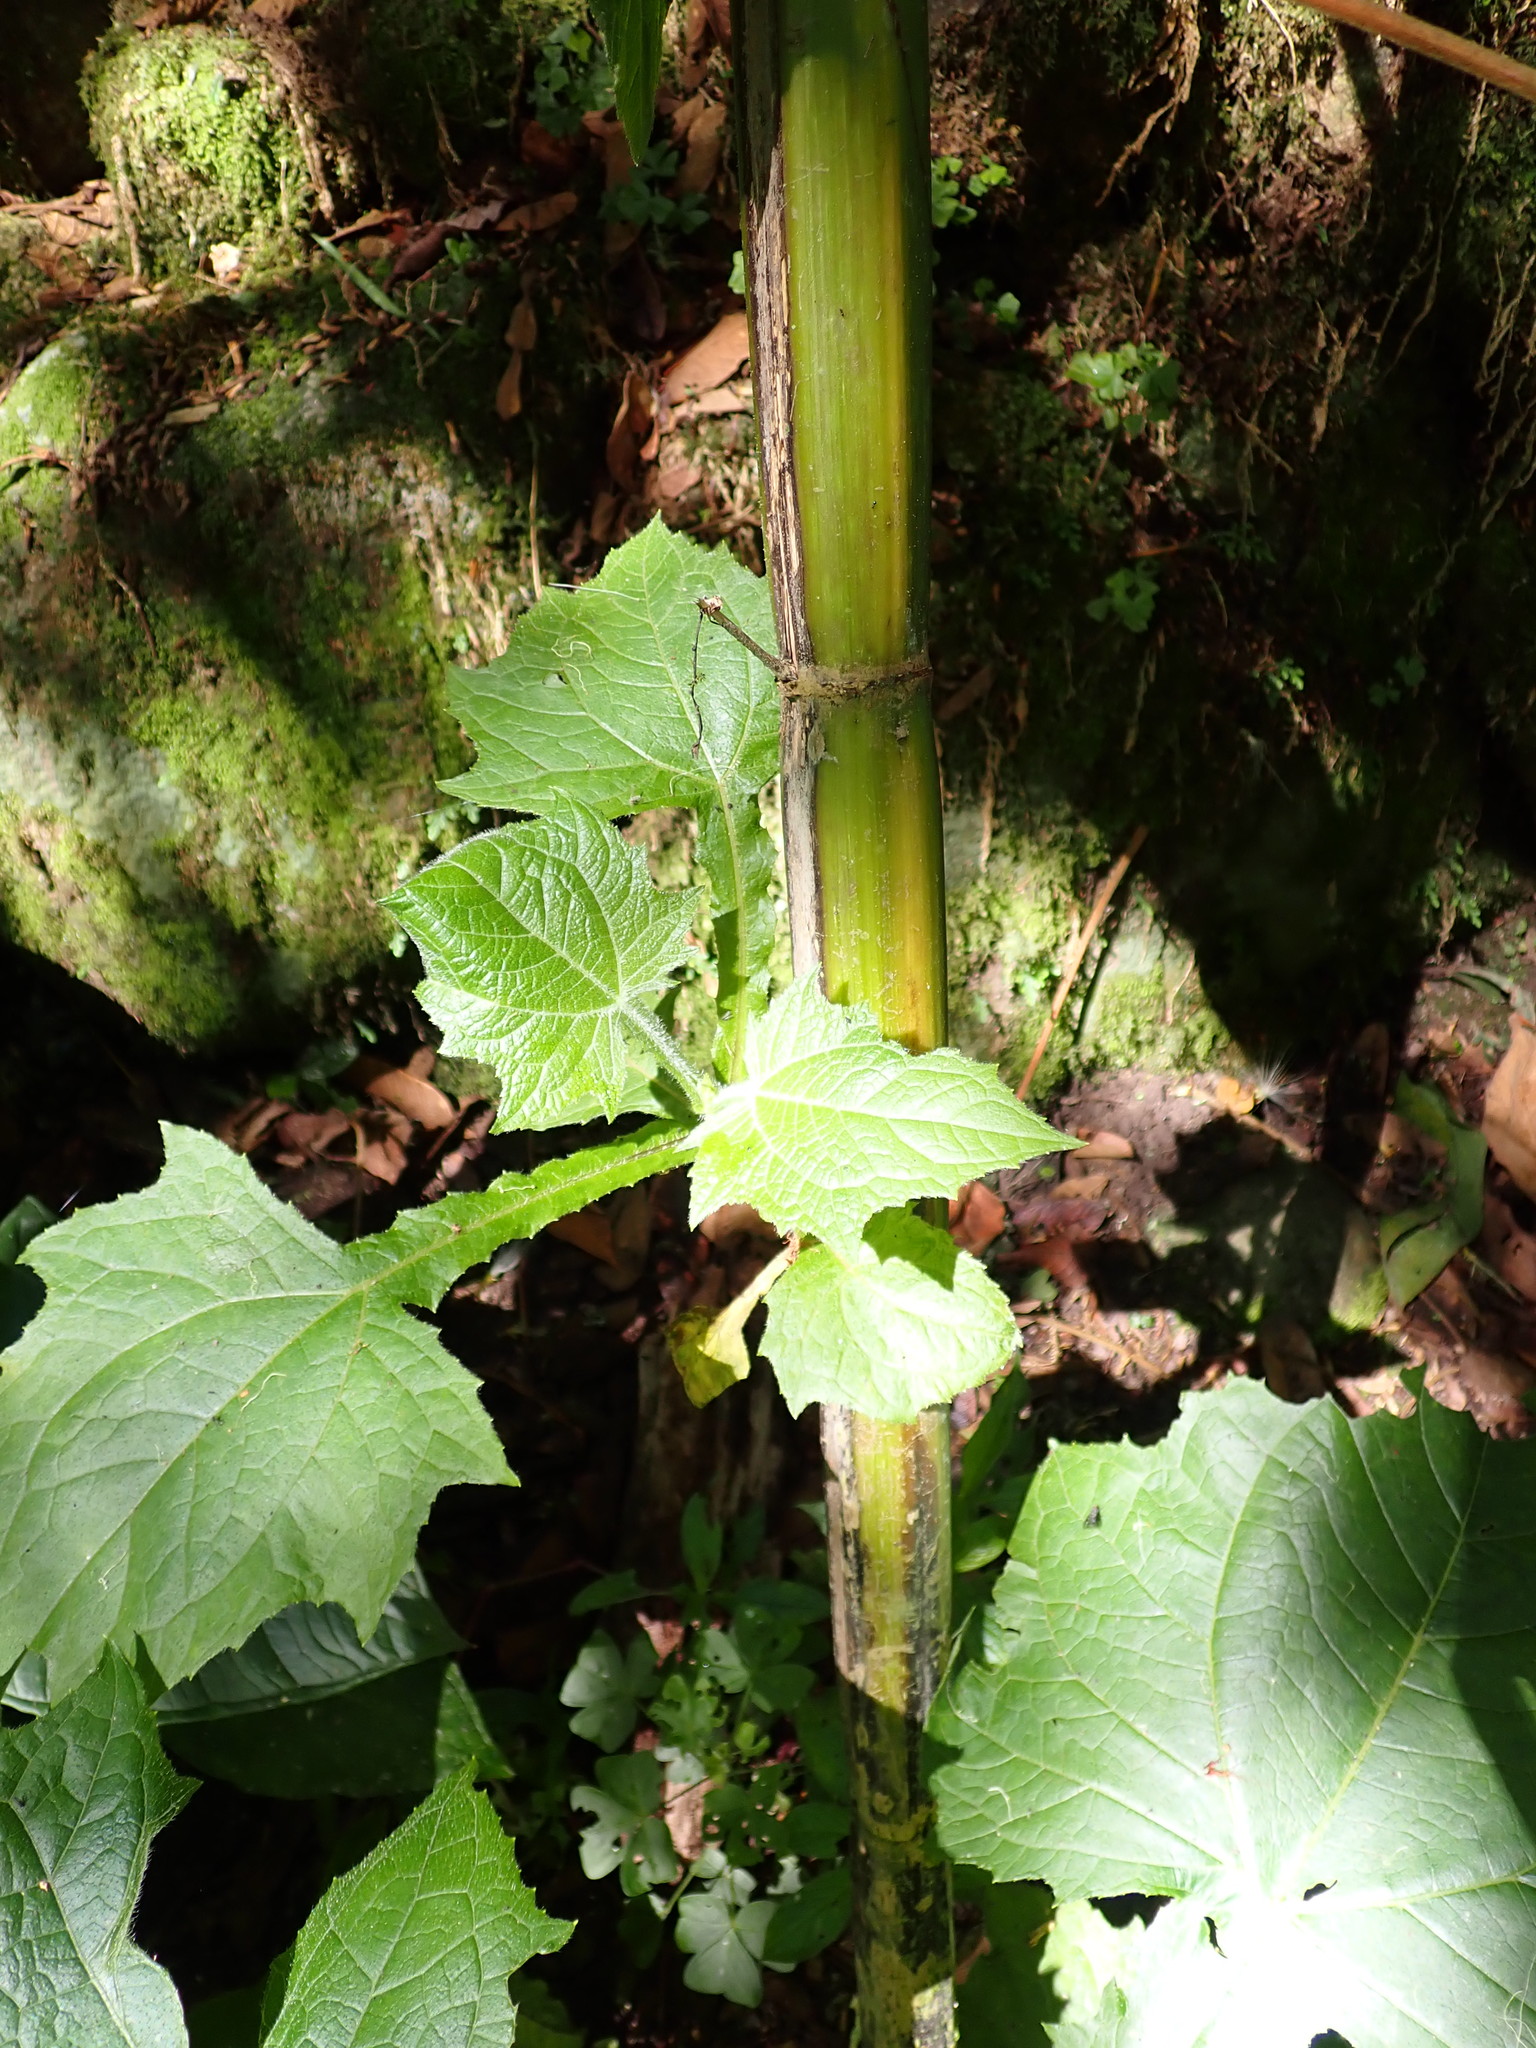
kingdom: Plantae
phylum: Tracheophyta
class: Magnoliopsida
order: Asterales
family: Asteraceae
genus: Smallanthus
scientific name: Smallanthus siegesbeckius
